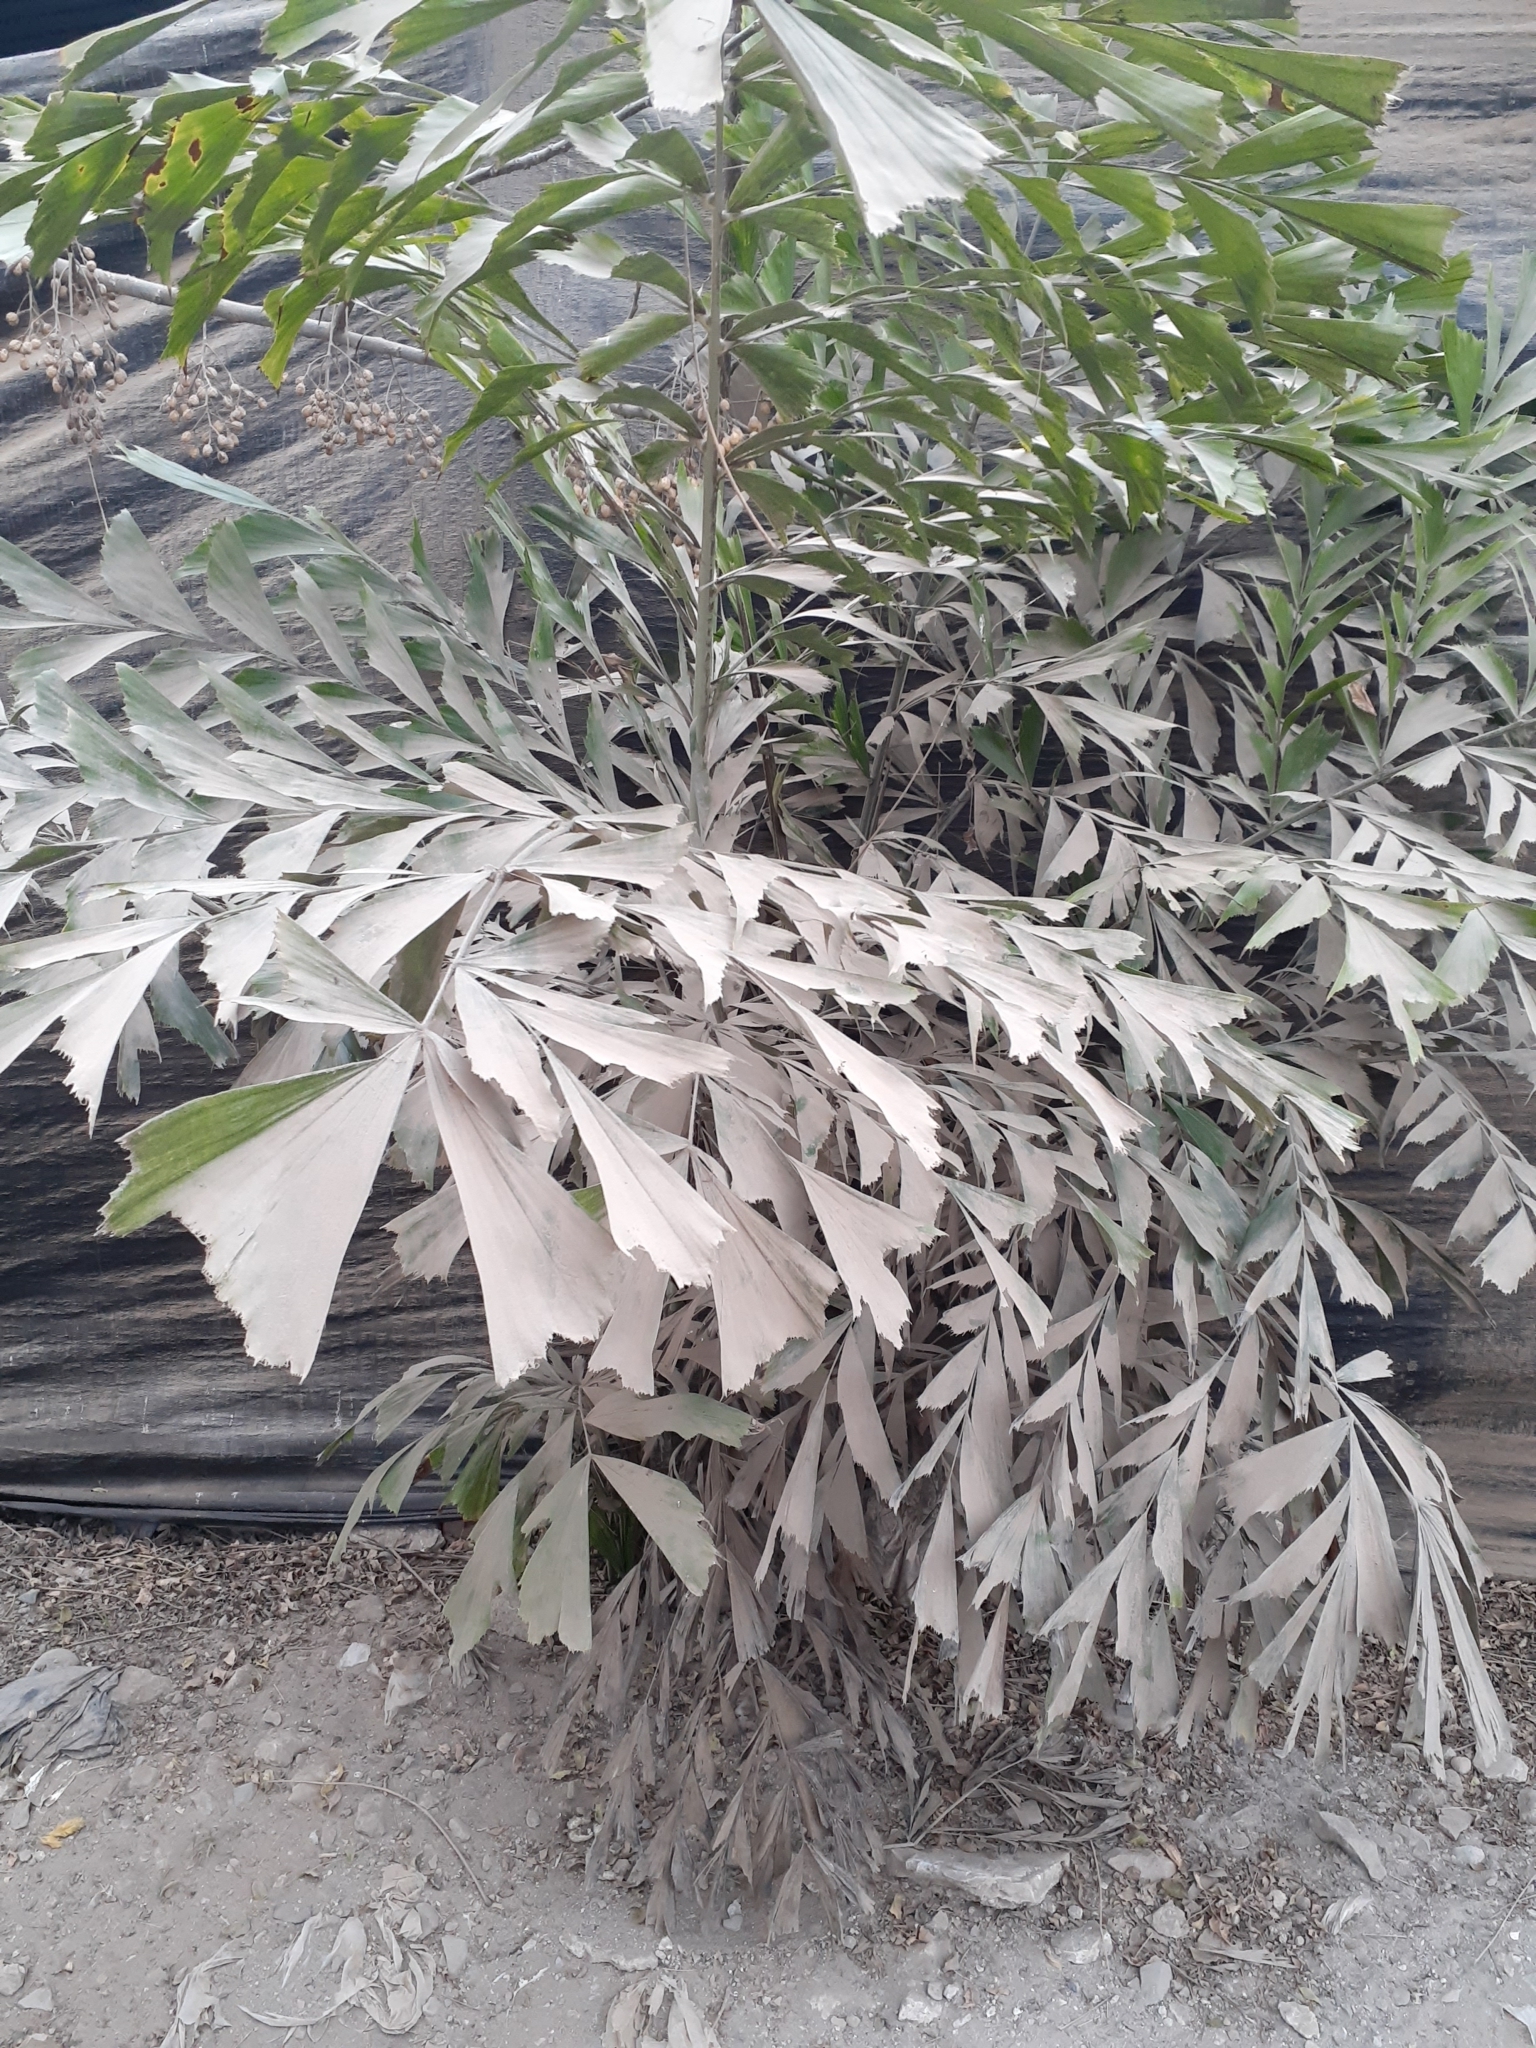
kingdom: Plantae
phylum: Tracheophyta
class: Liliopsida
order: Arecales
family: Arecaceae
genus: Caryota
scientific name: Caryota urens
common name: Jaggery palm
